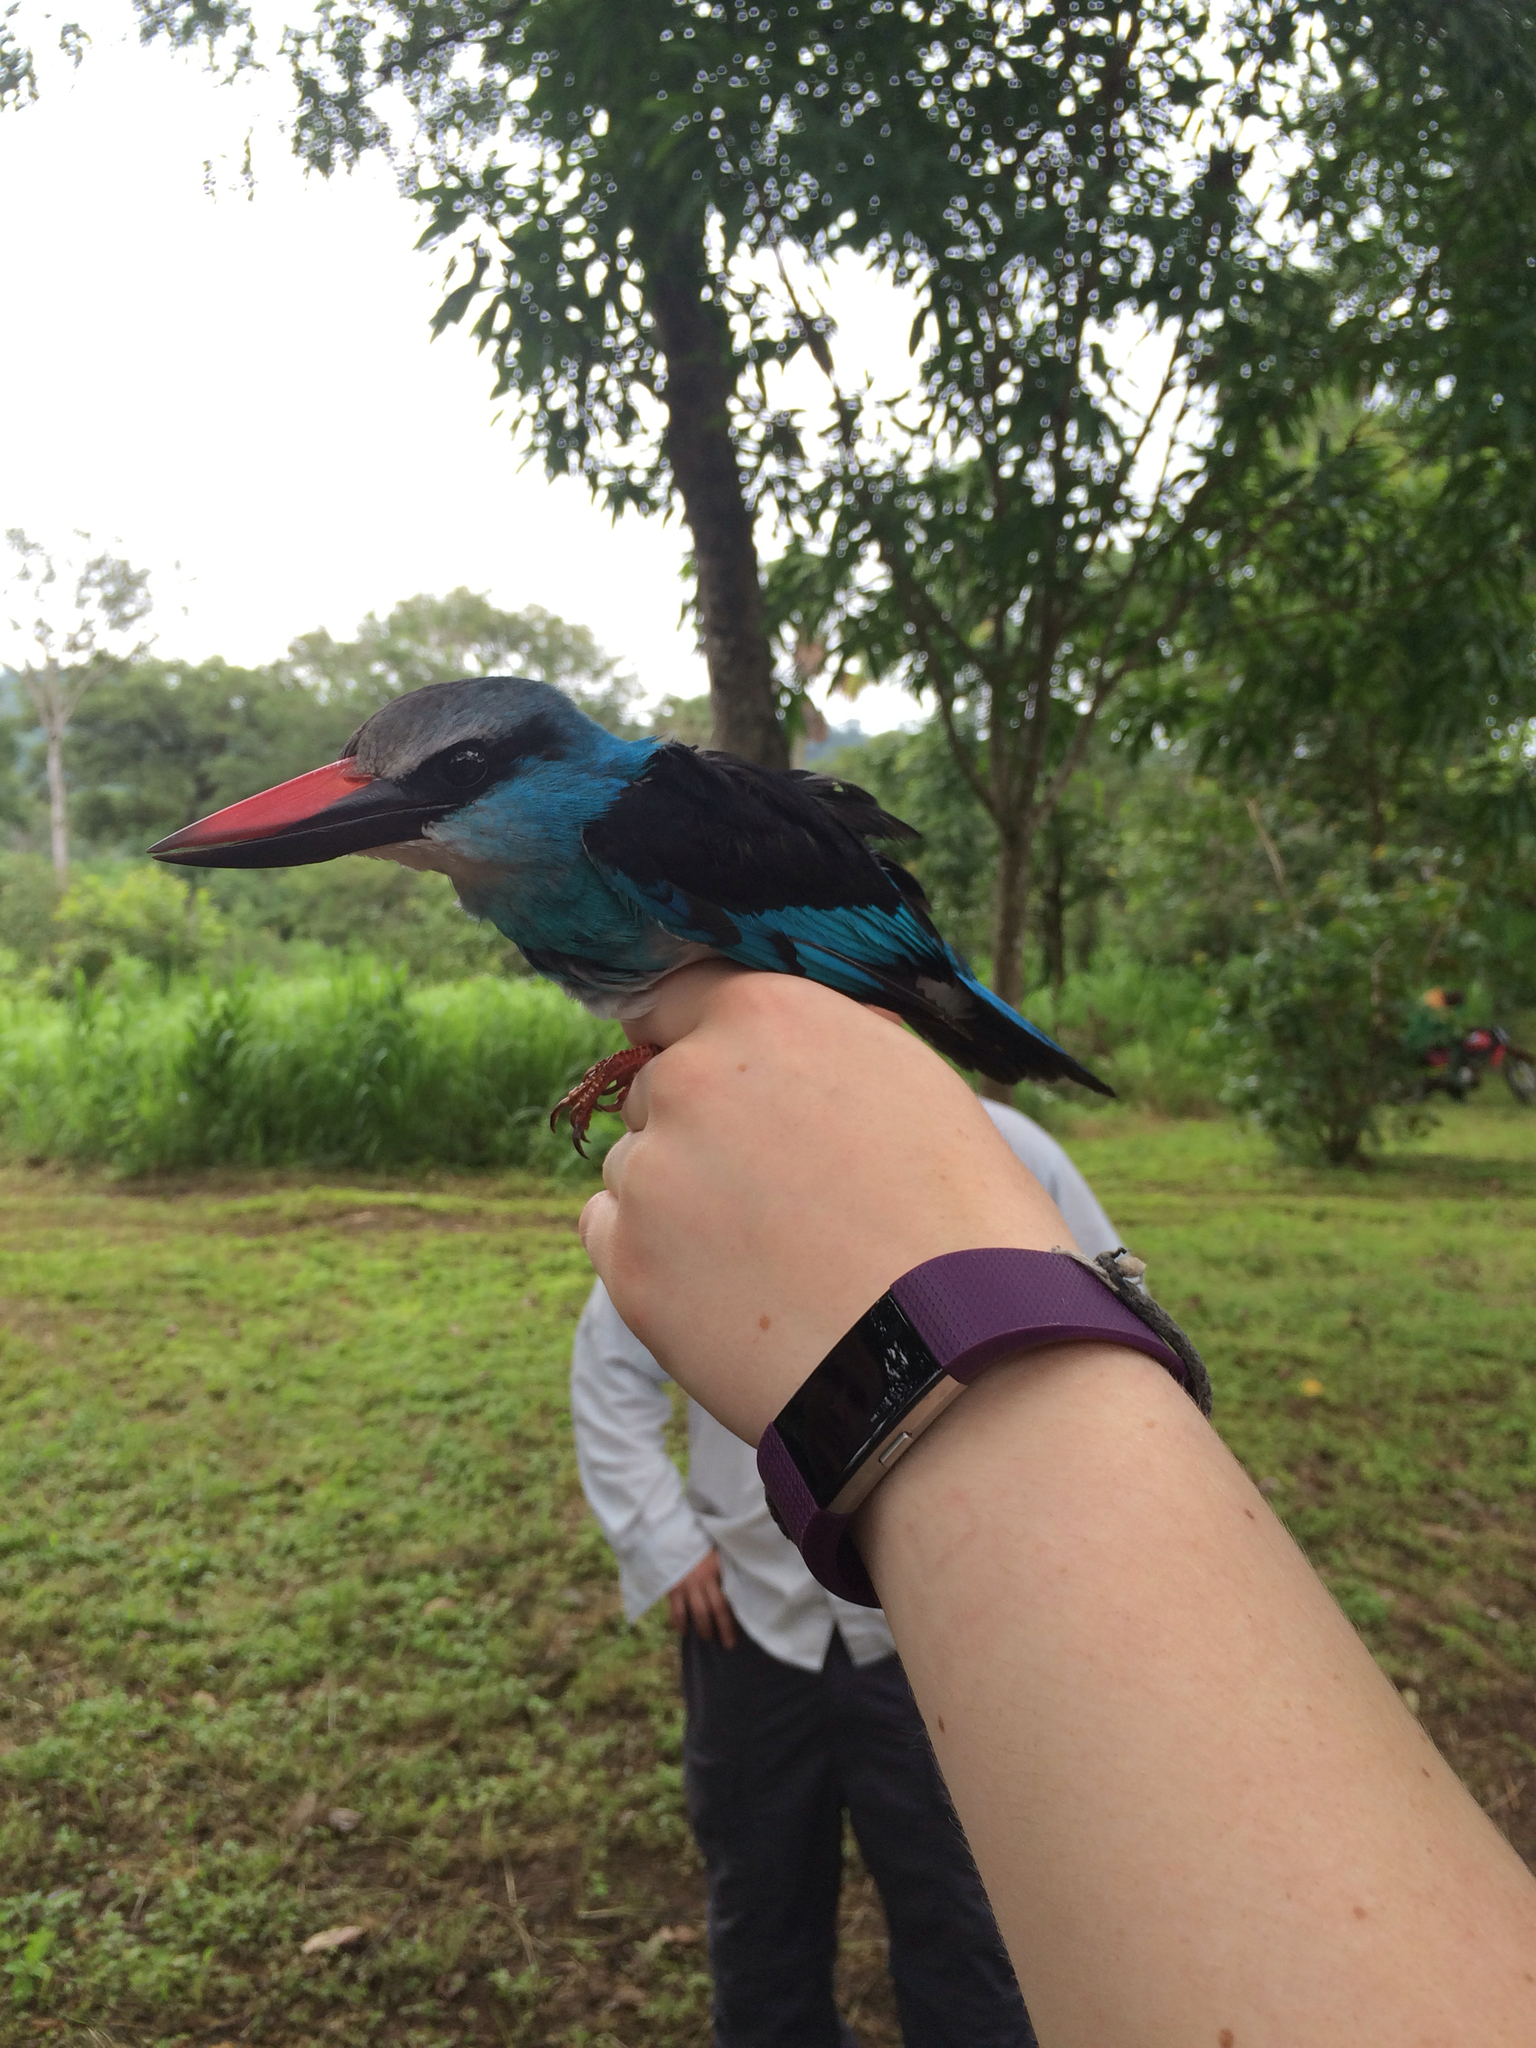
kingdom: Animalia
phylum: Chordata
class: Aves
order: Coraciiformes
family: Alcedinidae
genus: Halcyon
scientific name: Halcyon malimbica
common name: Blue-breasted kingfisher
